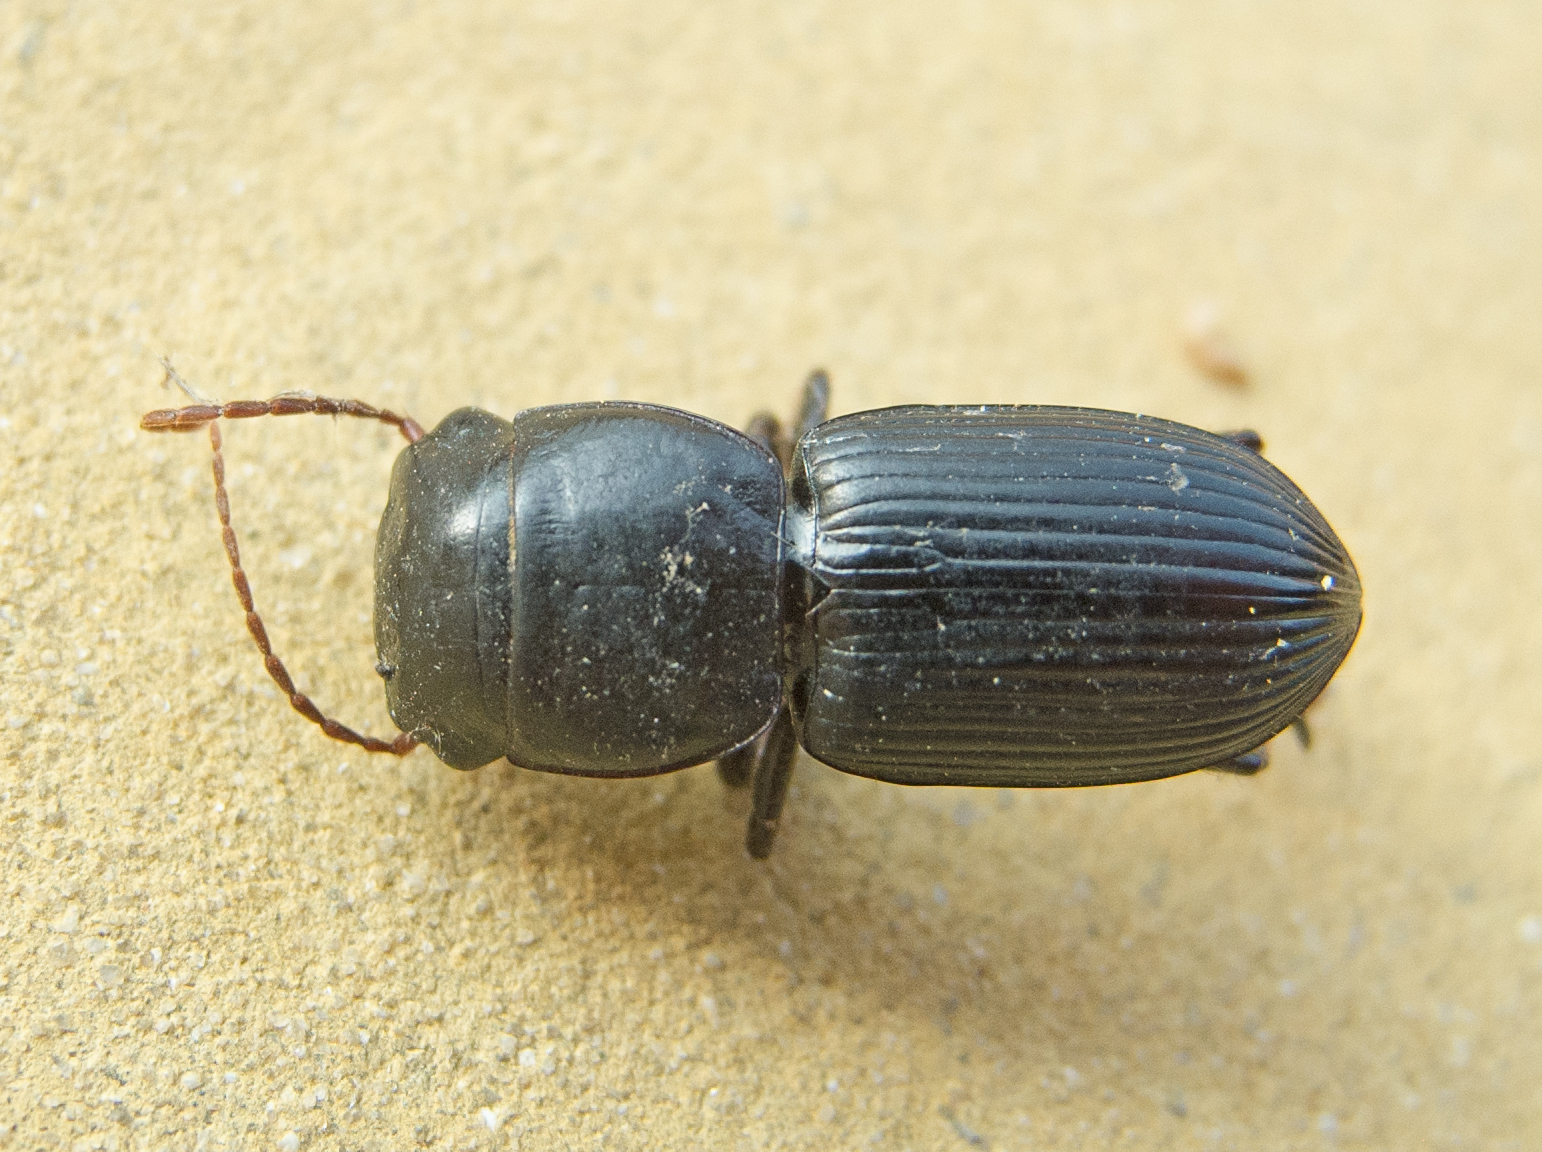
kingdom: Animalia
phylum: Arthropoda
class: Insecta
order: Coleoptera
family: Carabidae
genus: Acinopus
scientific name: Acinopus megacephalus
